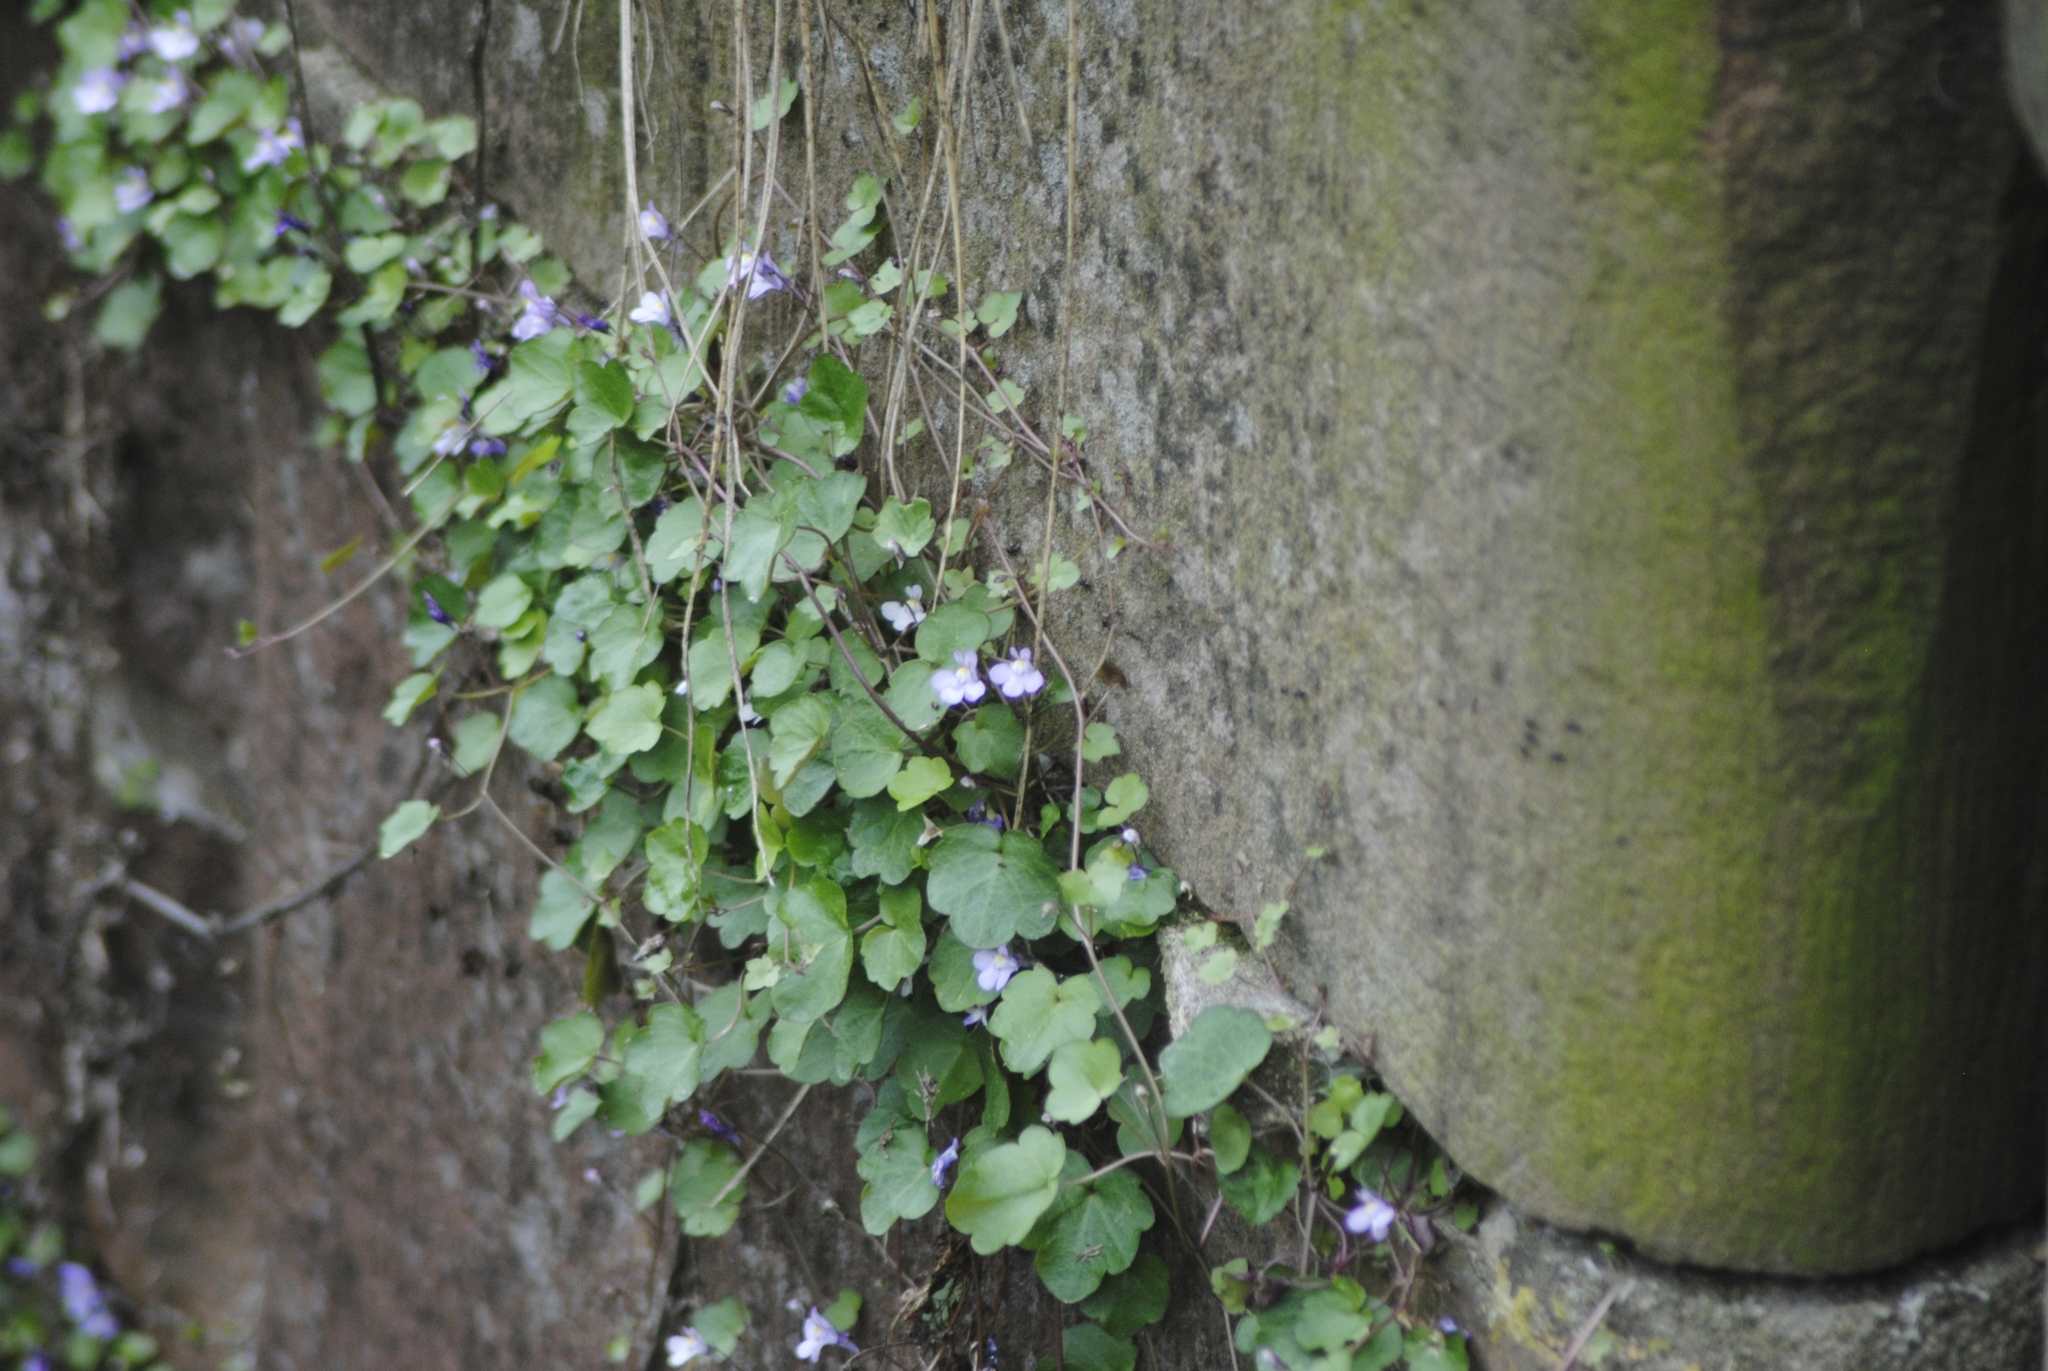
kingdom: Plantae
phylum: Tracheophyta
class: Magnoliopsida
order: Lamiales
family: Plantaginaceae
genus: Cymbalaria
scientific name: Cymbalaria muralis
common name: Ivy-leaved toadflax
